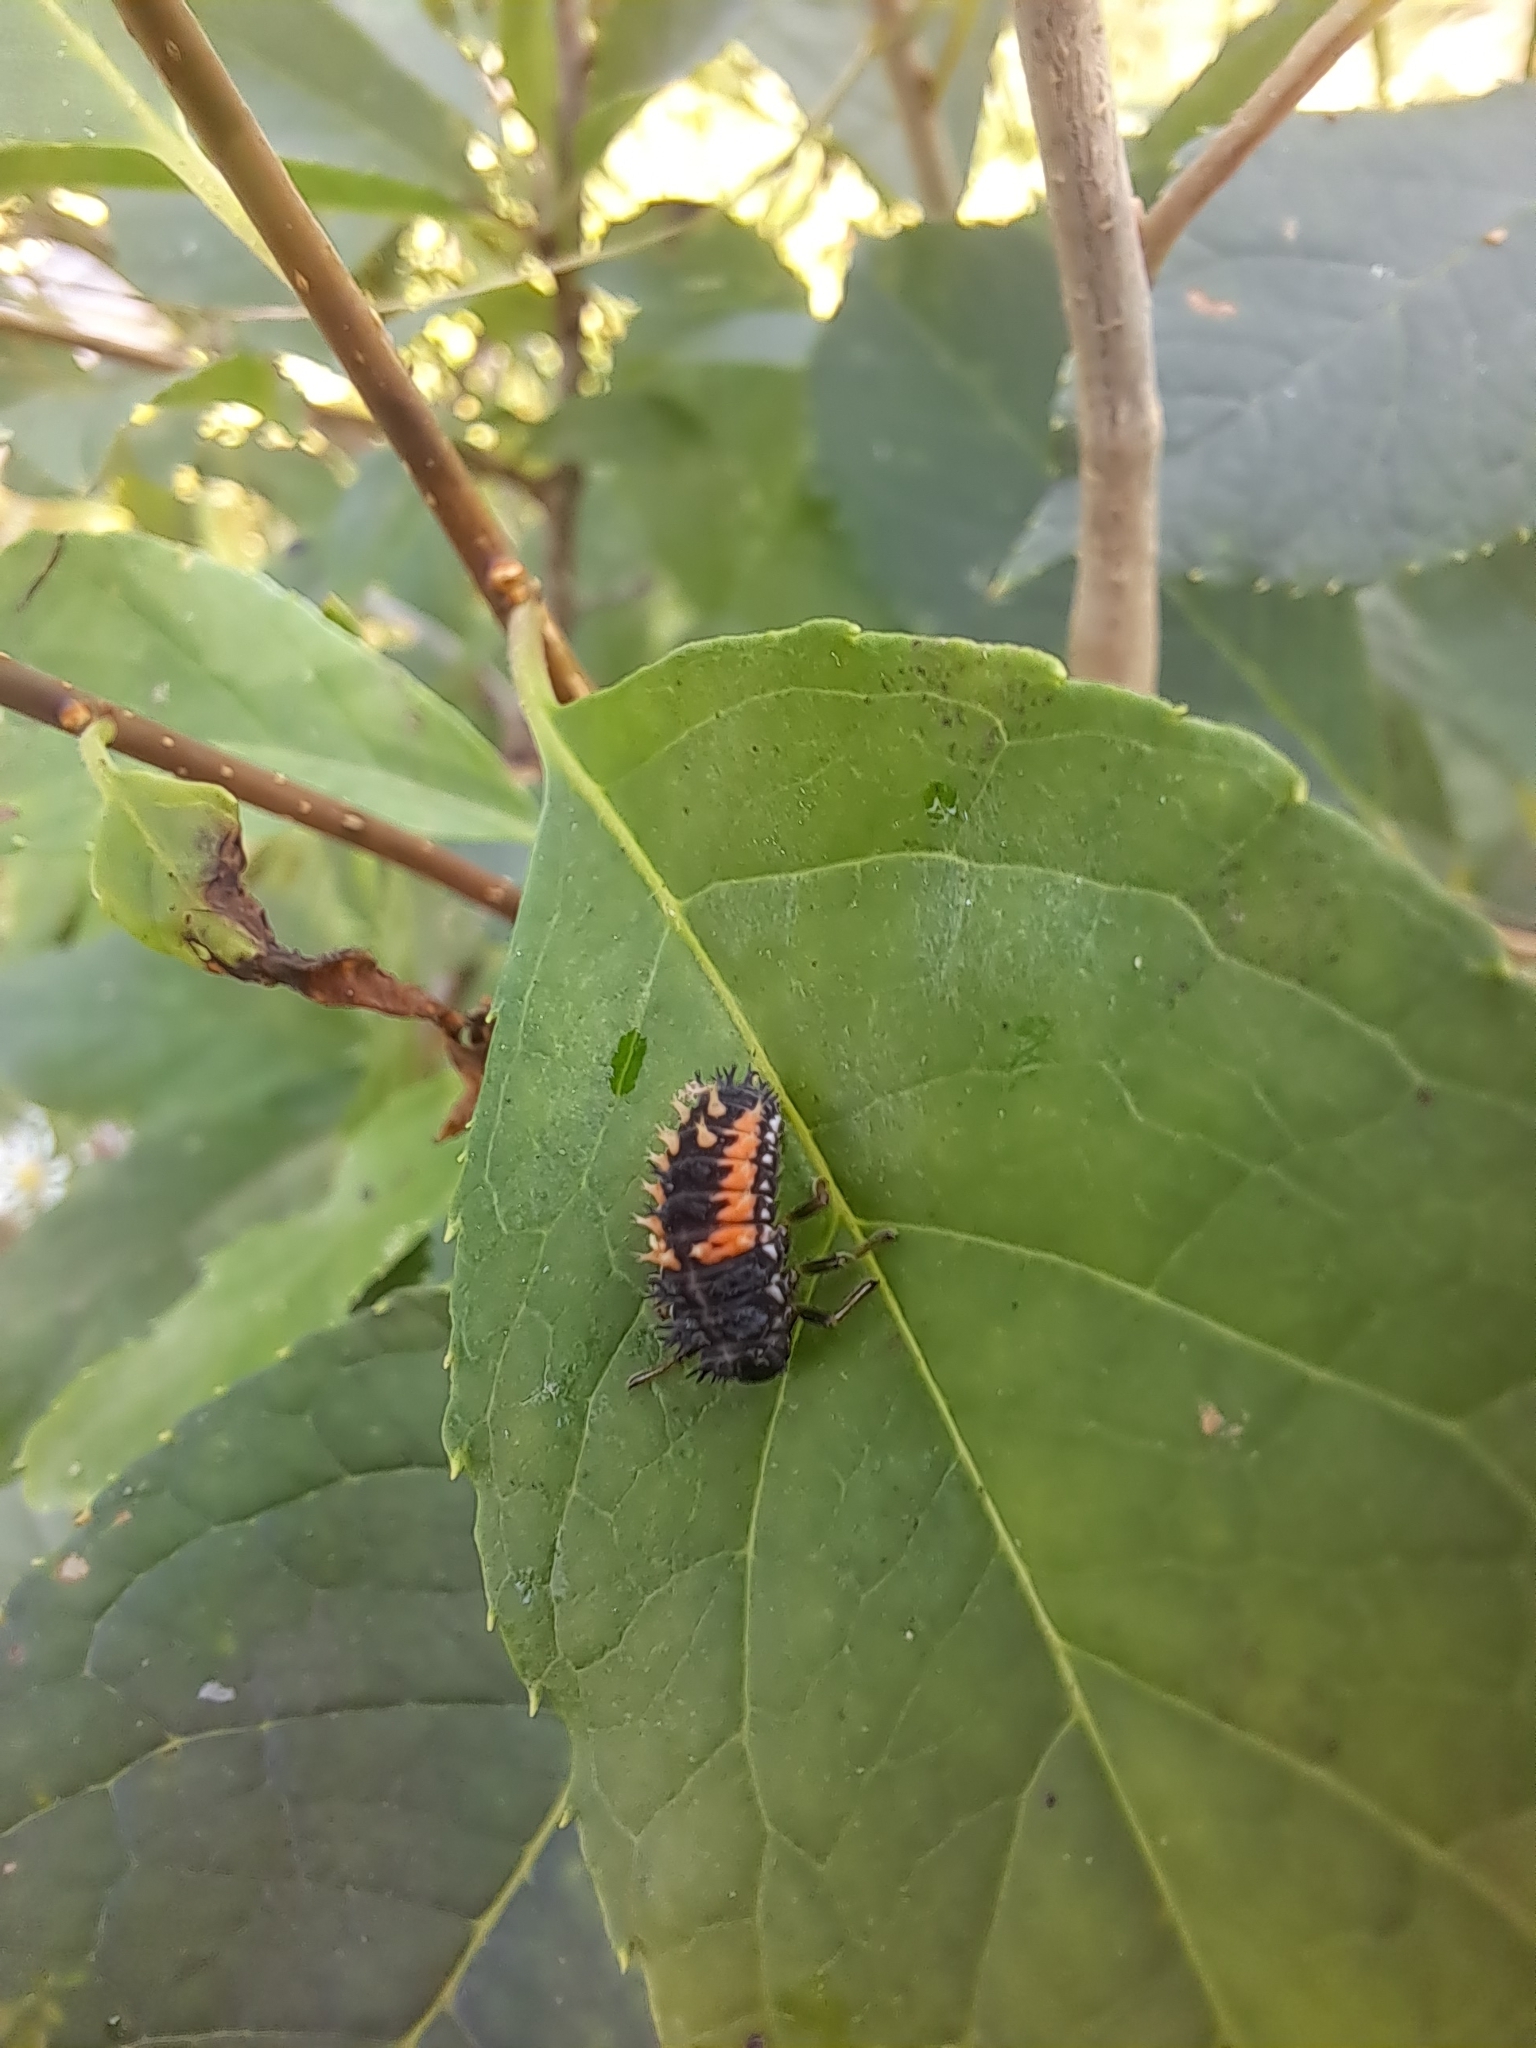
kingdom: Animalia
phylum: Arthropoda
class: Insecta
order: Coleoptera
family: Coccinellidae
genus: Harmonia
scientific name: Harmonia axyridis
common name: Harlequin ladybird
